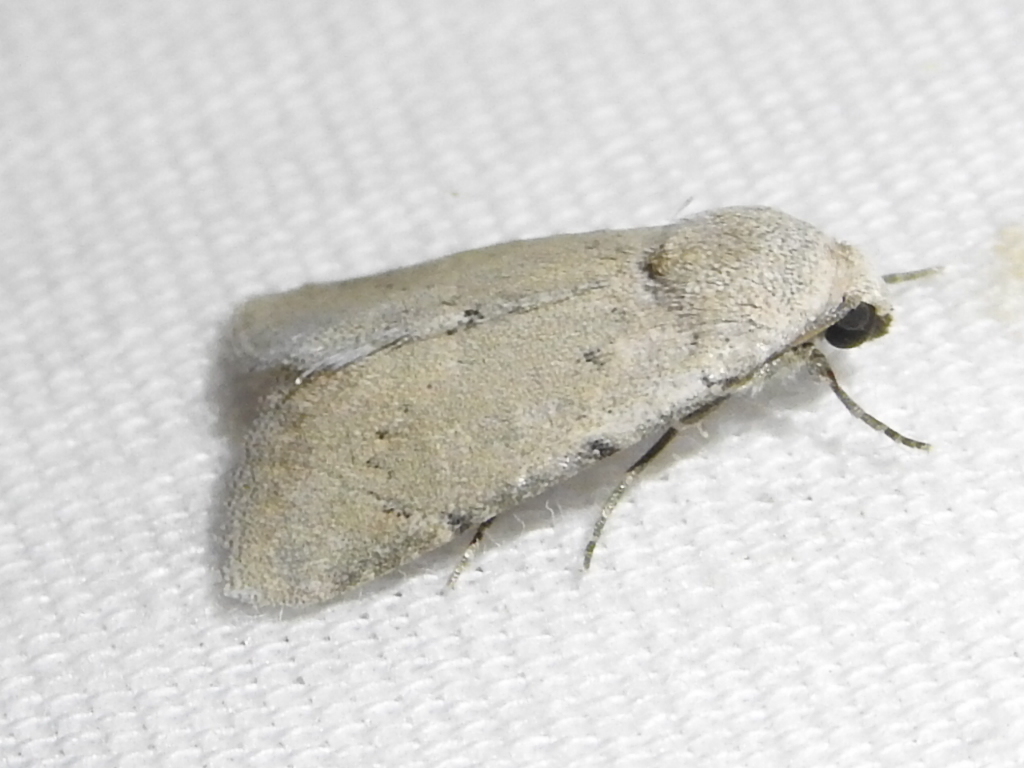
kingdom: Animalia
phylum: Arthropoda
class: Insecta
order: Lepidoptera
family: Noctuidae
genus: Leucocnemis
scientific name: Leucocnemis perfundis
